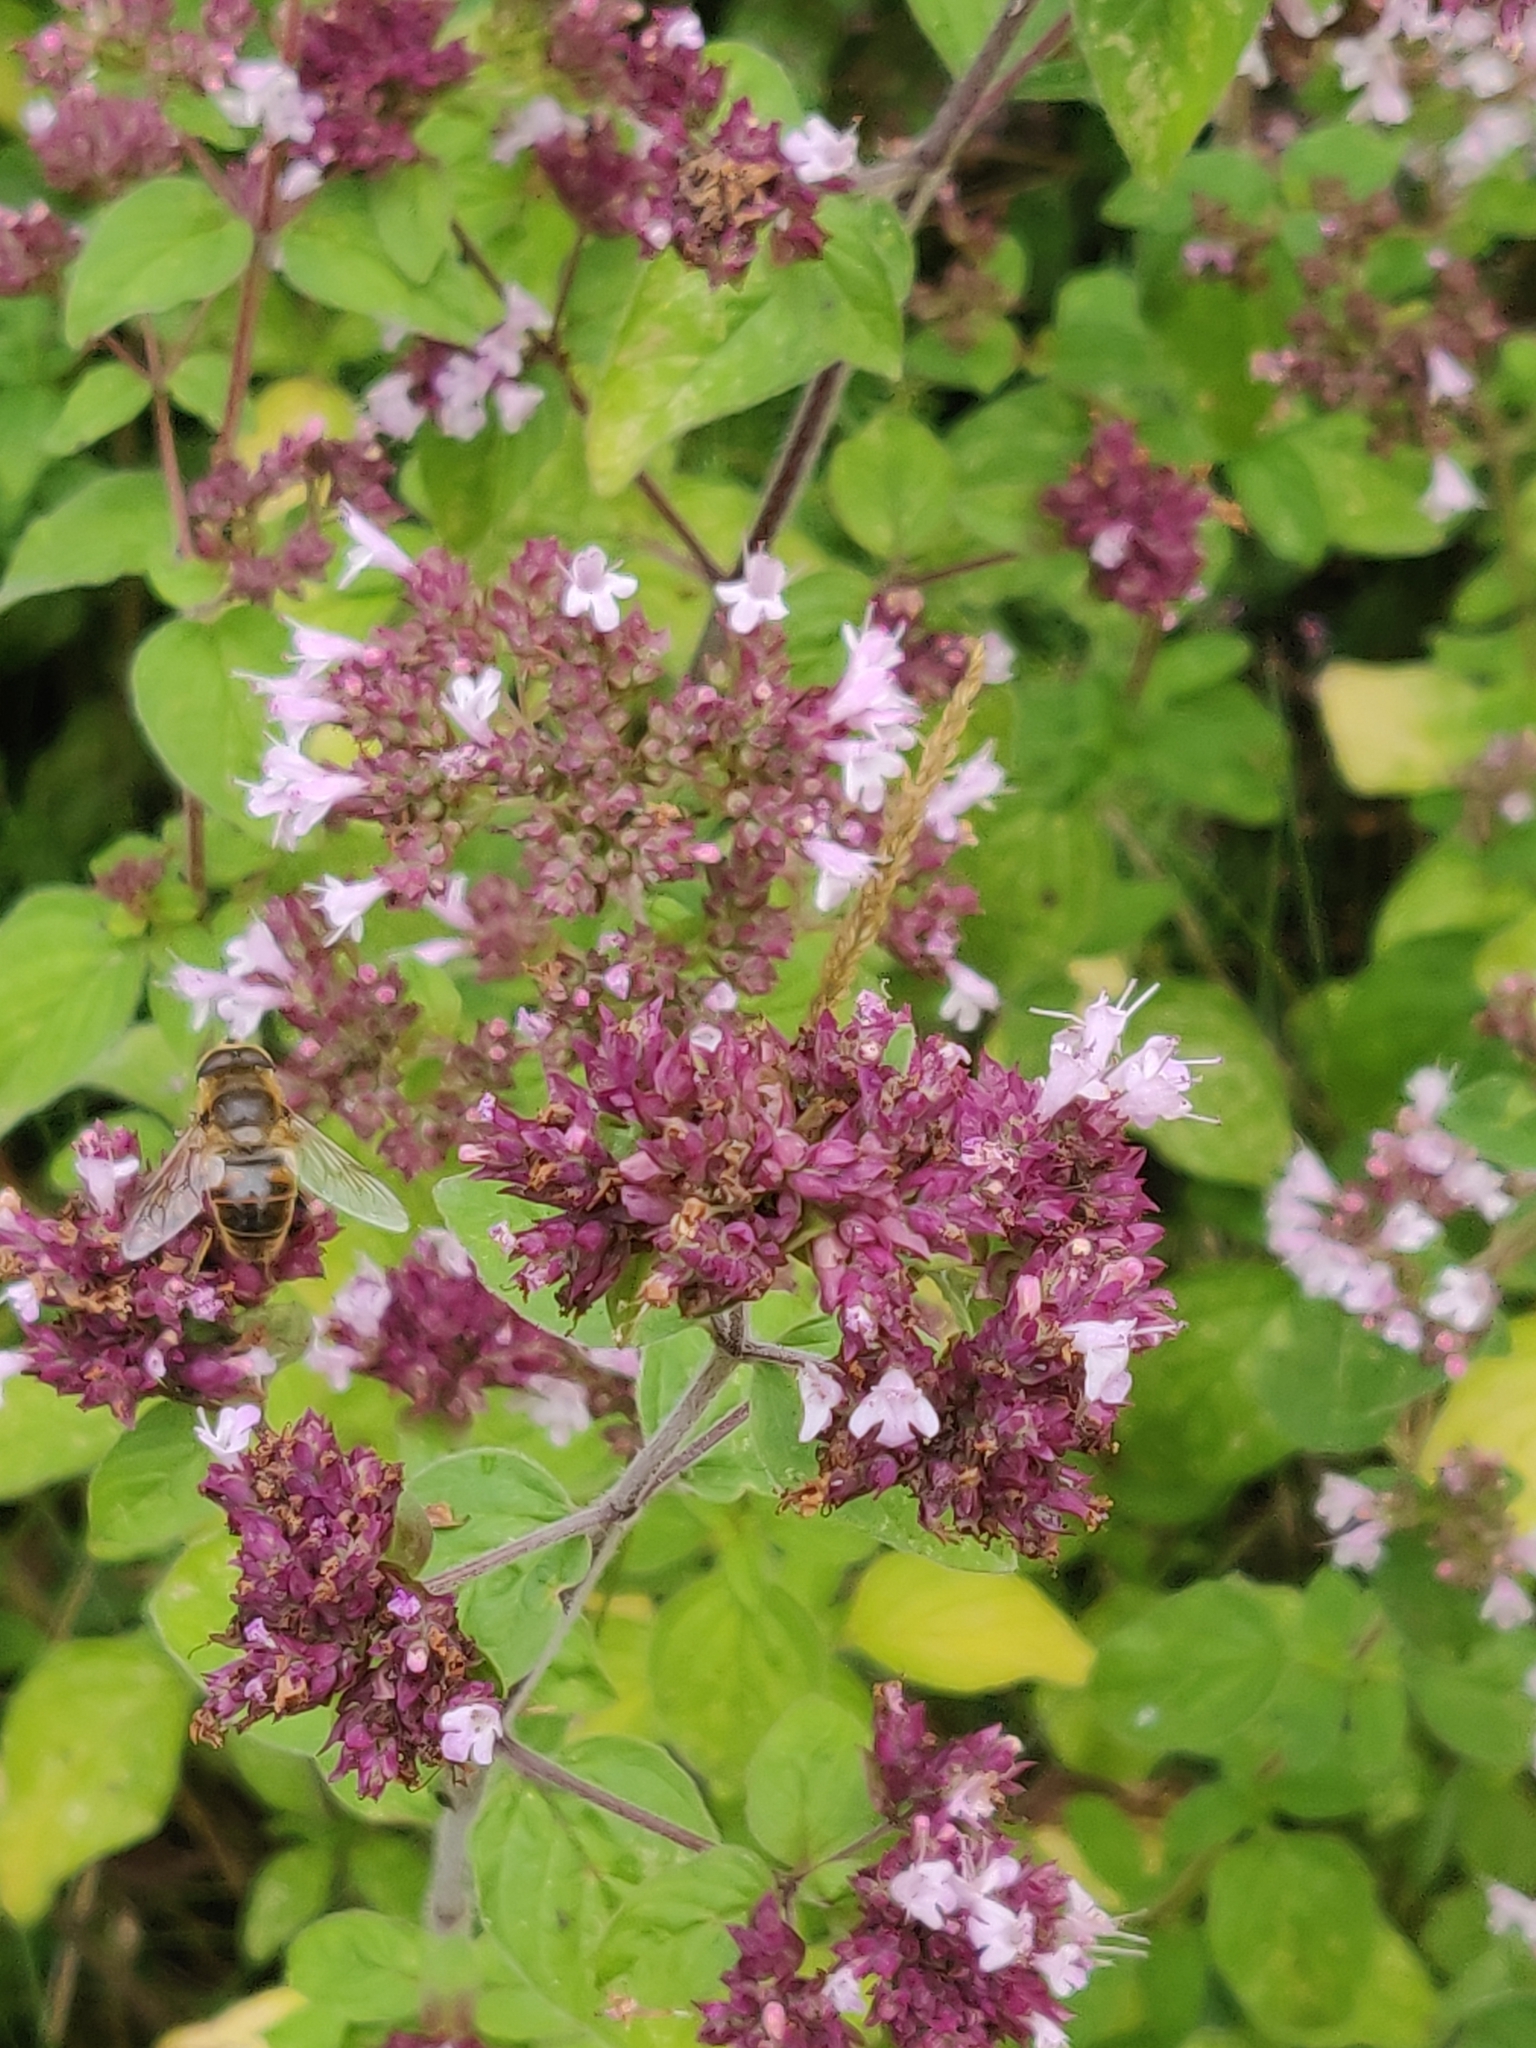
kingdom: Plantae
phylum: Tracheophyta
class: Magnoliopsida
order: Lamiales
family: Lamiaceae
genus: Origanum
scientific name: Origanum vulgare
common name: Wild marjoram
